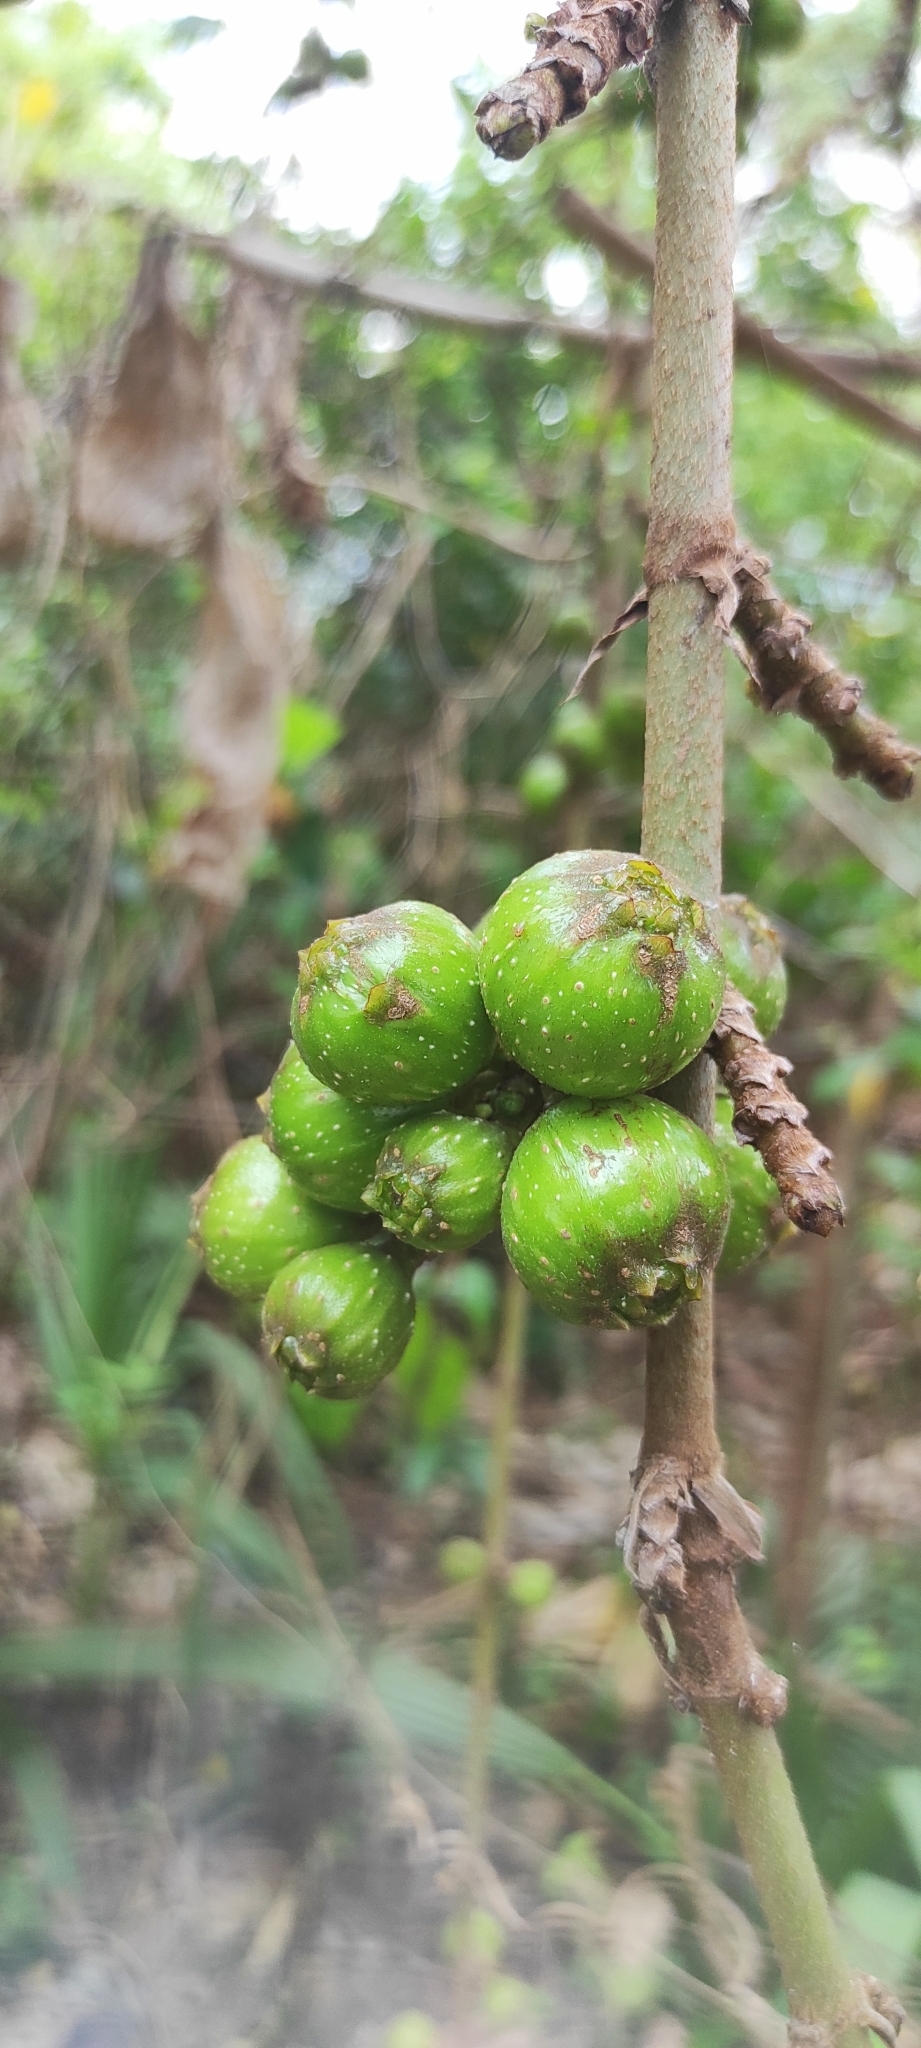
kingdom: Plantae
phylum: Tracheophyta
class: Magnoliopsida
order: Rosales
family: Moraceae
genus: Ficus
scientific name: Ficus hispida
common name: Hairy fig
